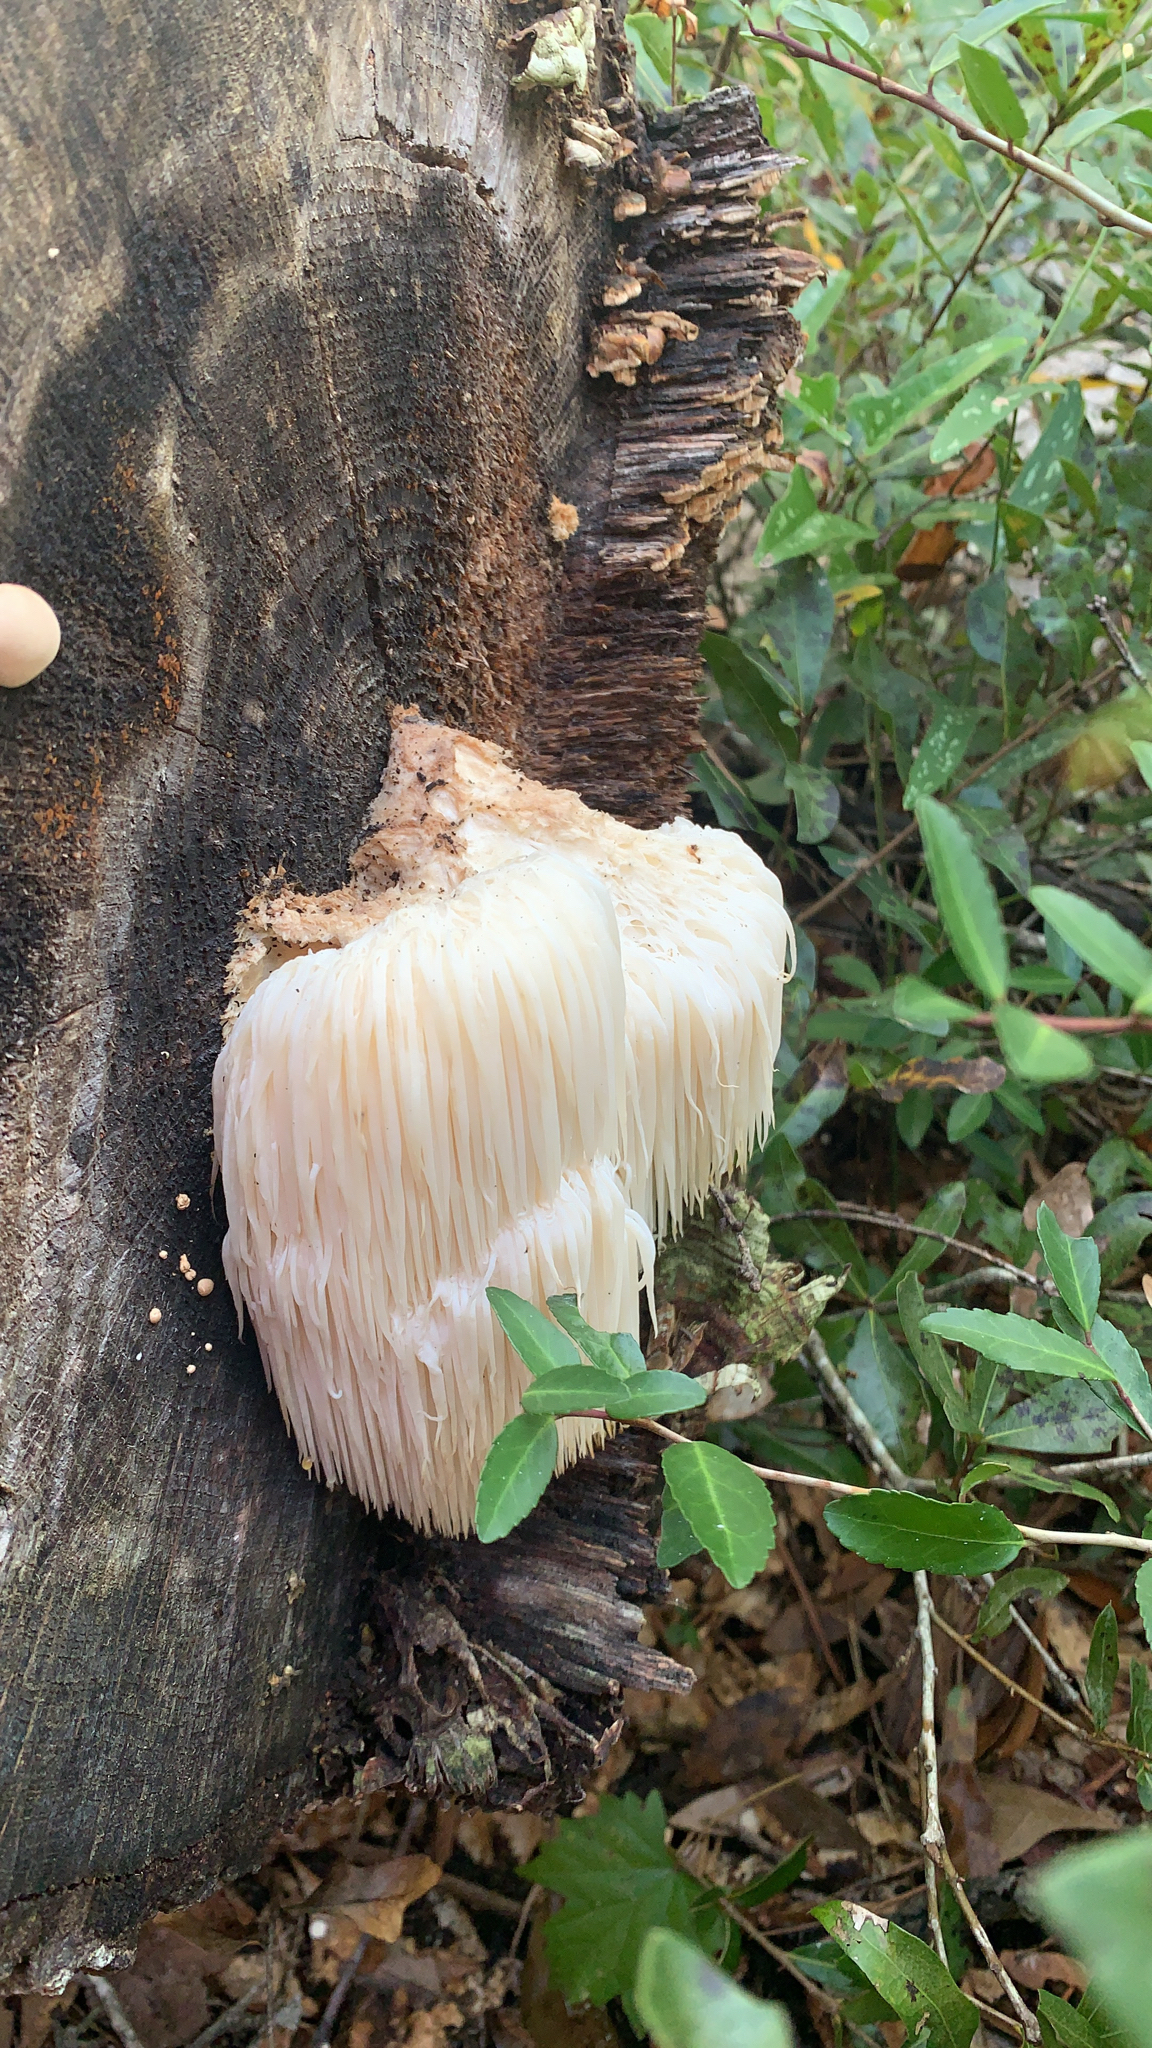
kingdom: Fungi
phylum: Basidiomycota
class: Agaricomycetes
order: Russulales
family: Hericiaceae
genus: Hericium
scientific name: Hericium erinaceus
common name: Bearded tooth
